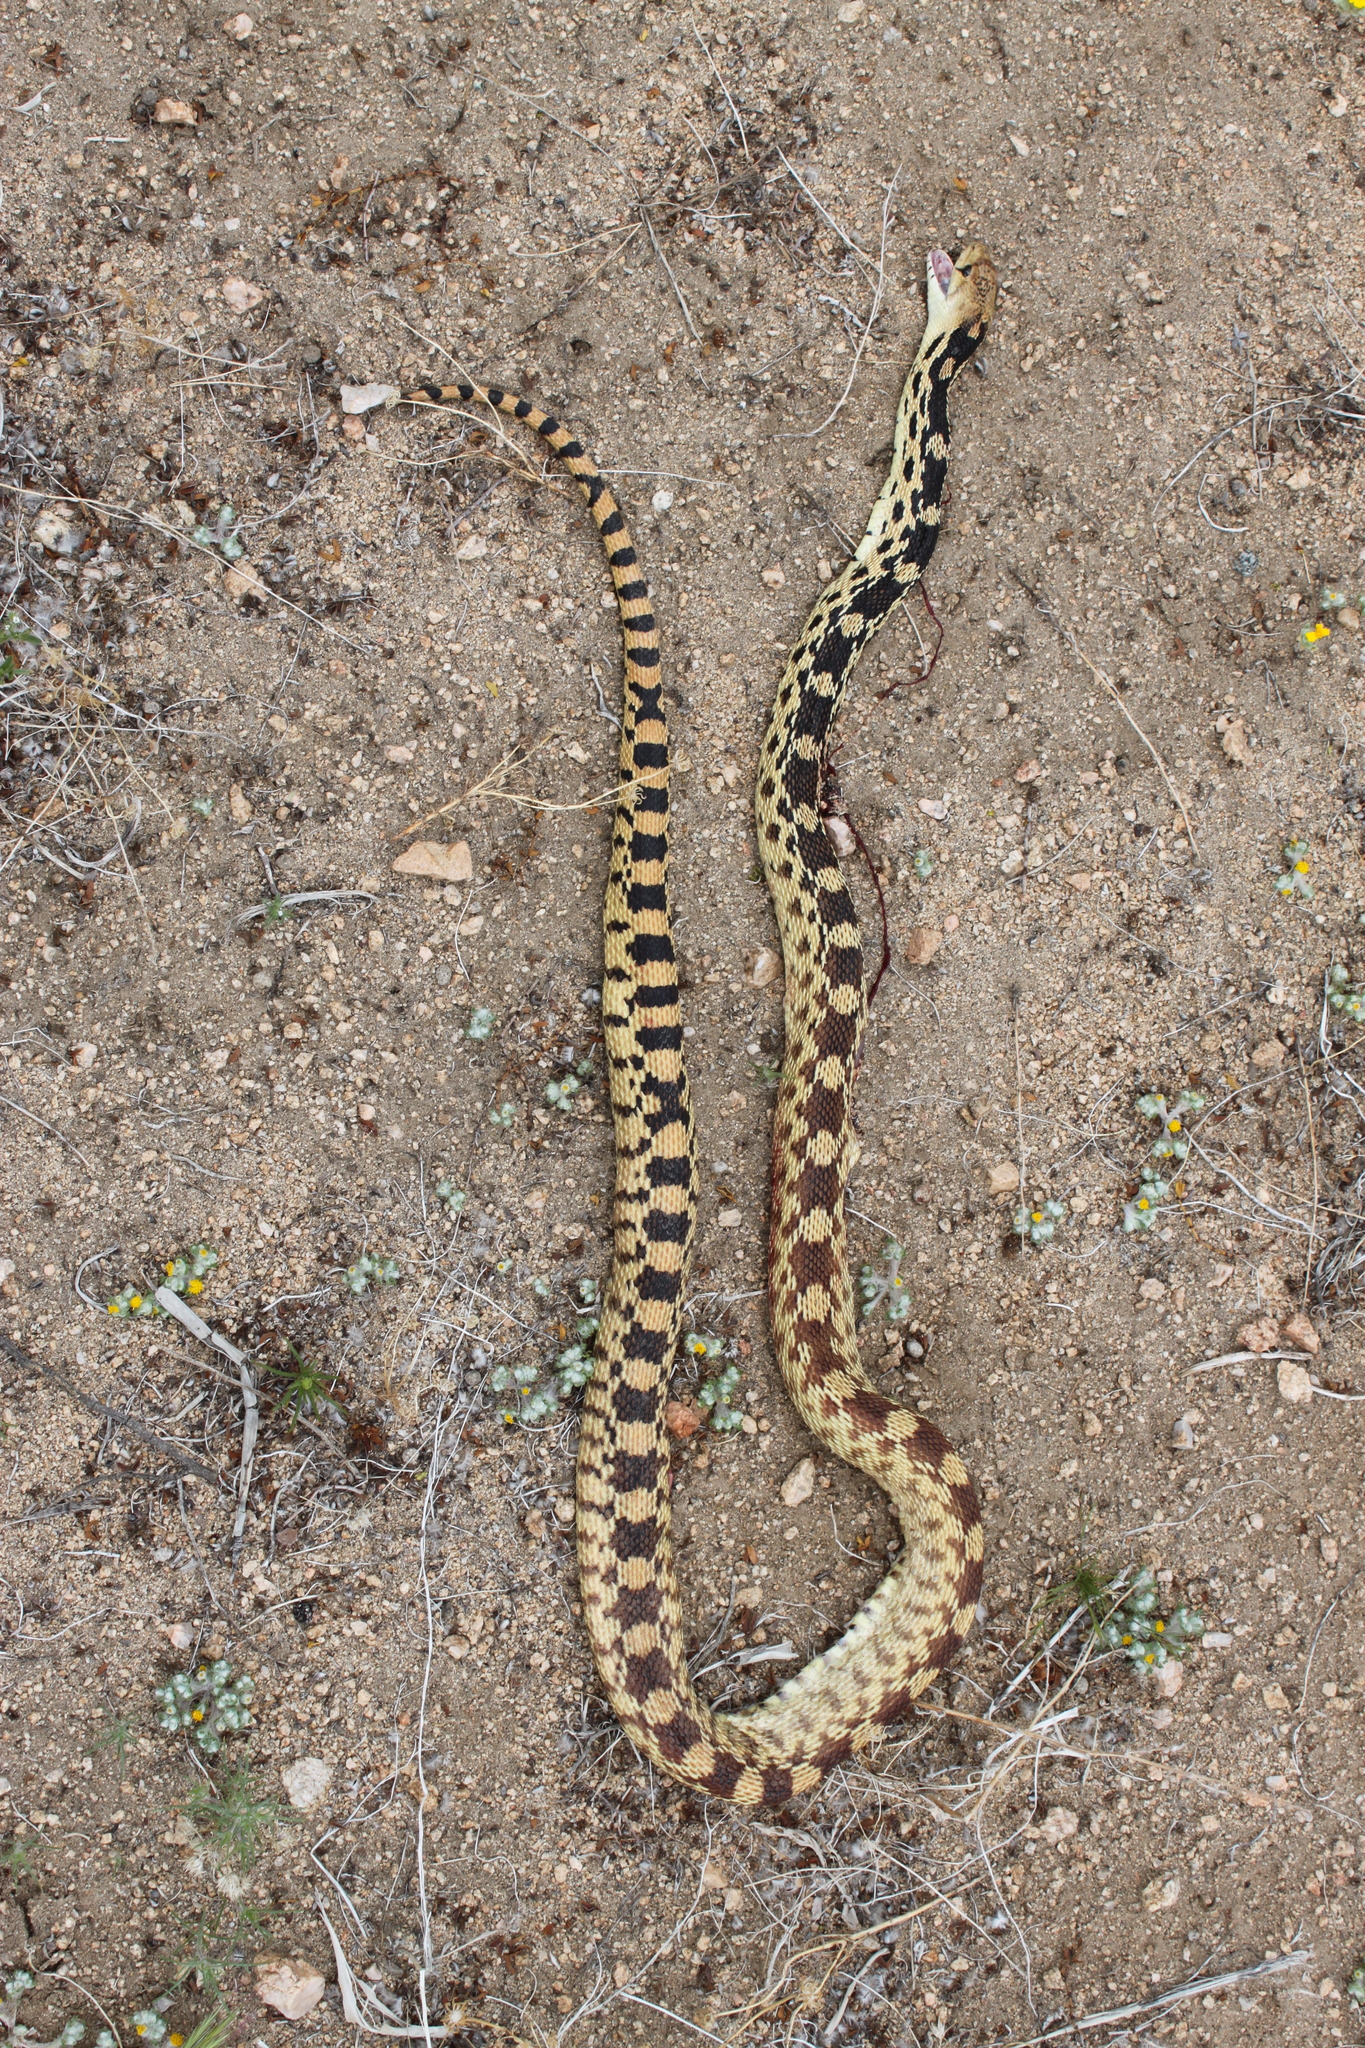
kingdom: Animalia
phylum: Chordata
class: Squamata
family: Colubridae
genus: Pituophis
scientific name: Pituophis catenifer
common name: Gopher snake
